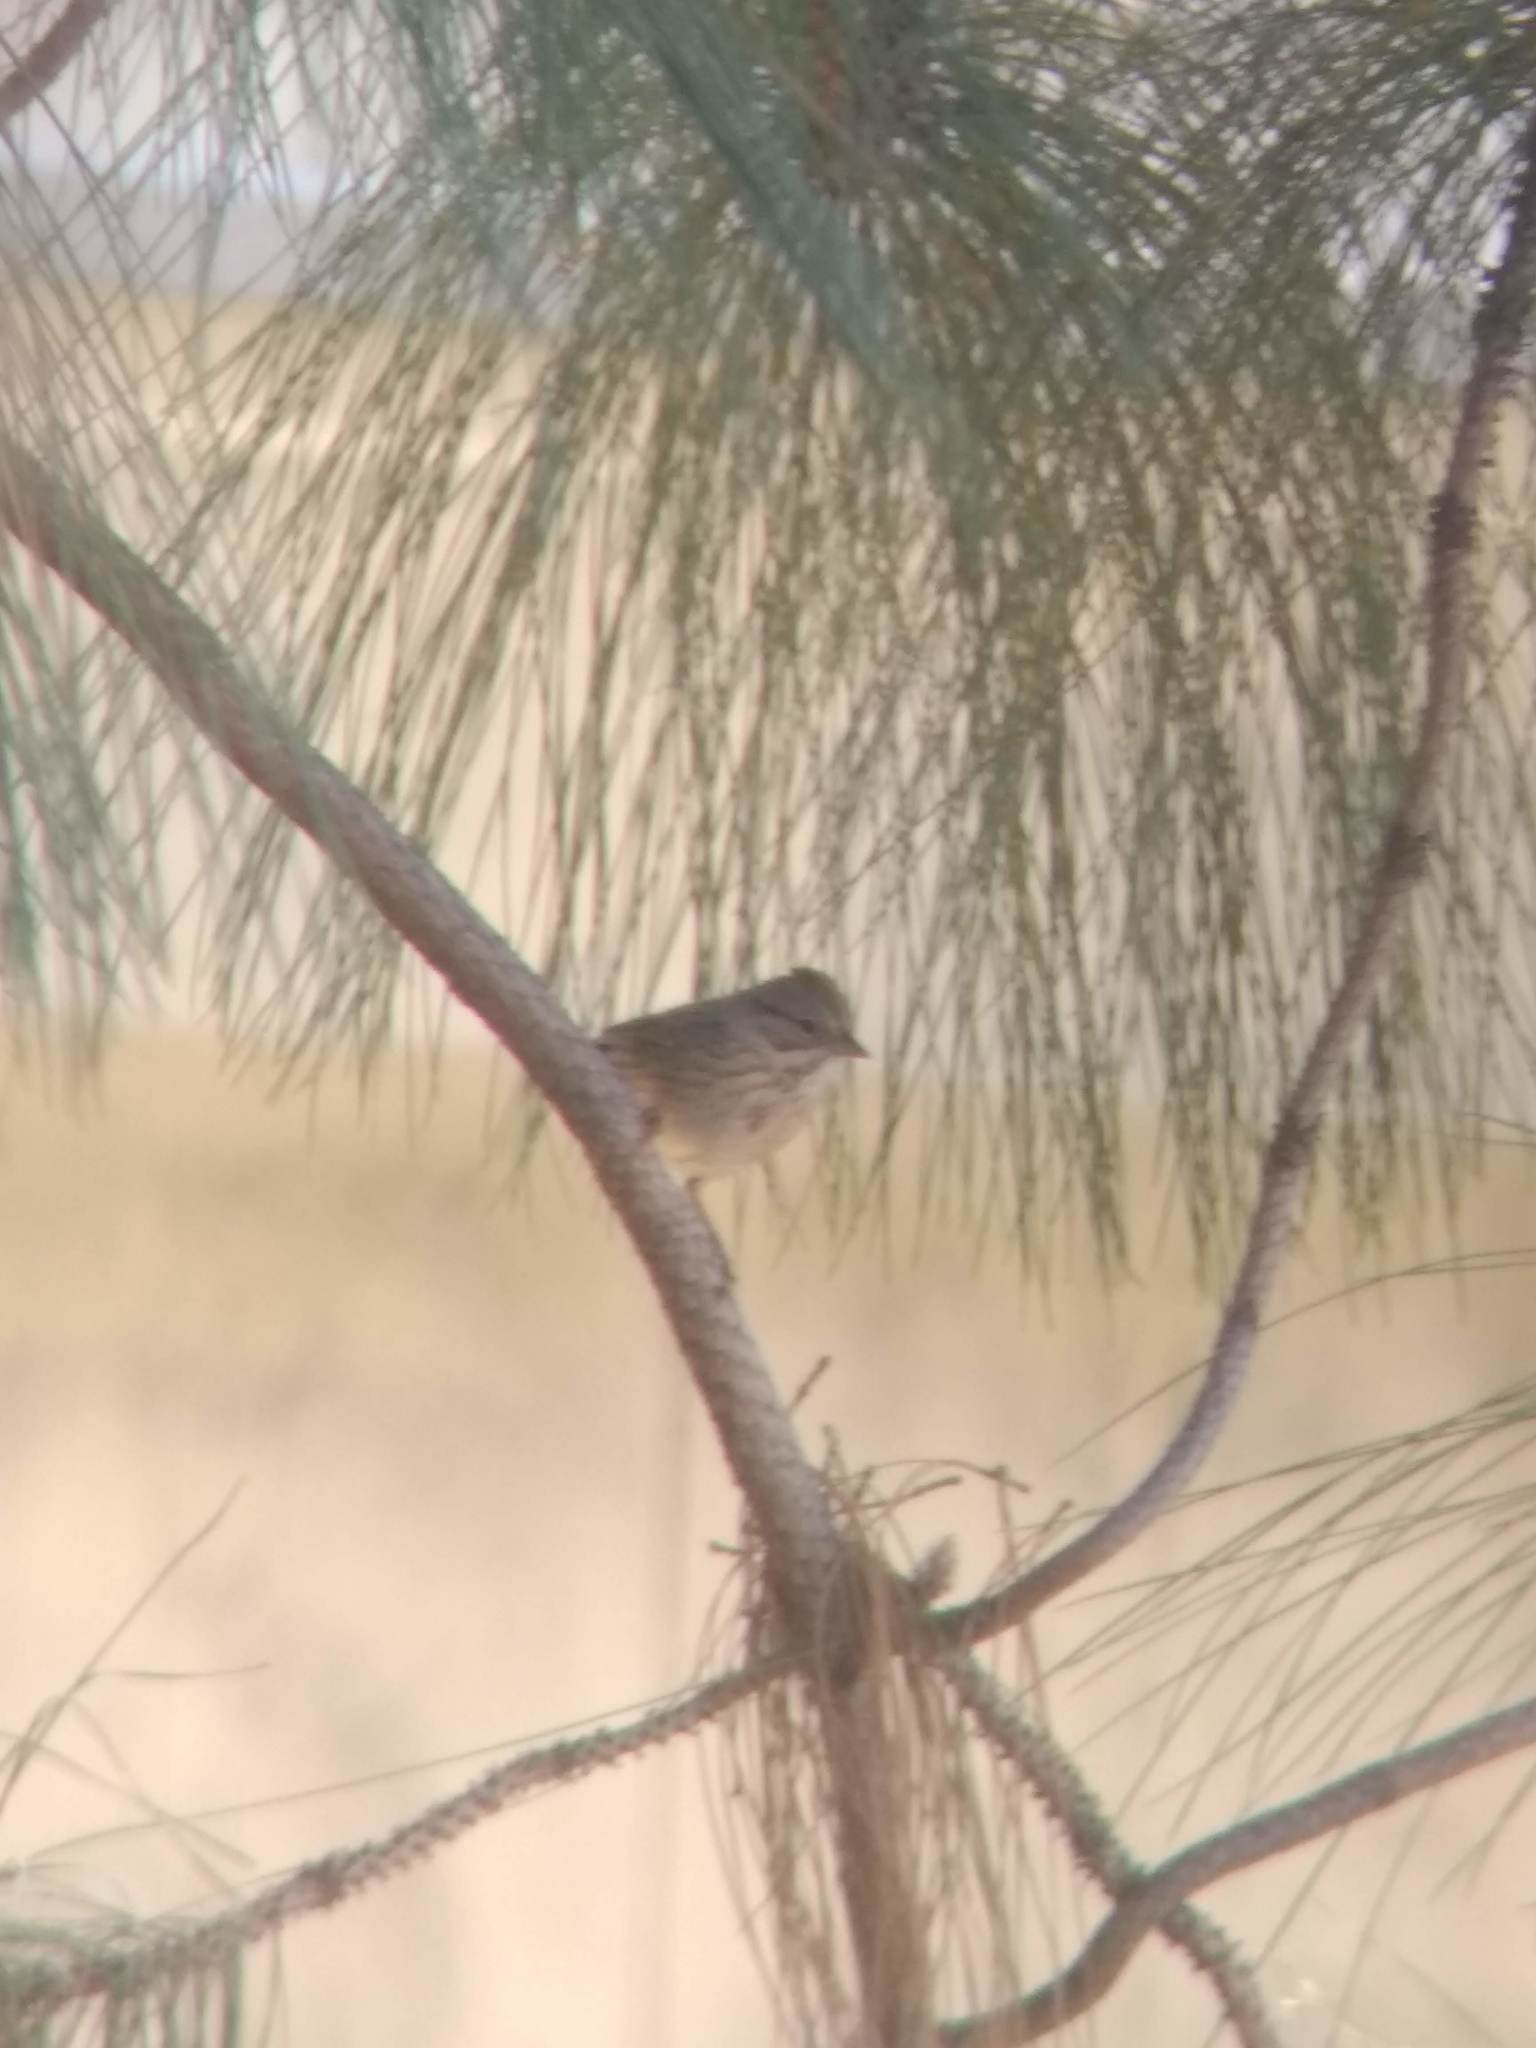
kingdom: Animalia
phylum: Chordata
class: Aves
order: Passeriformes
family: Passerellidae
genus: Melospiza
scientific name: Melospiza lincolnii
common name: Lincoln's sparrow
